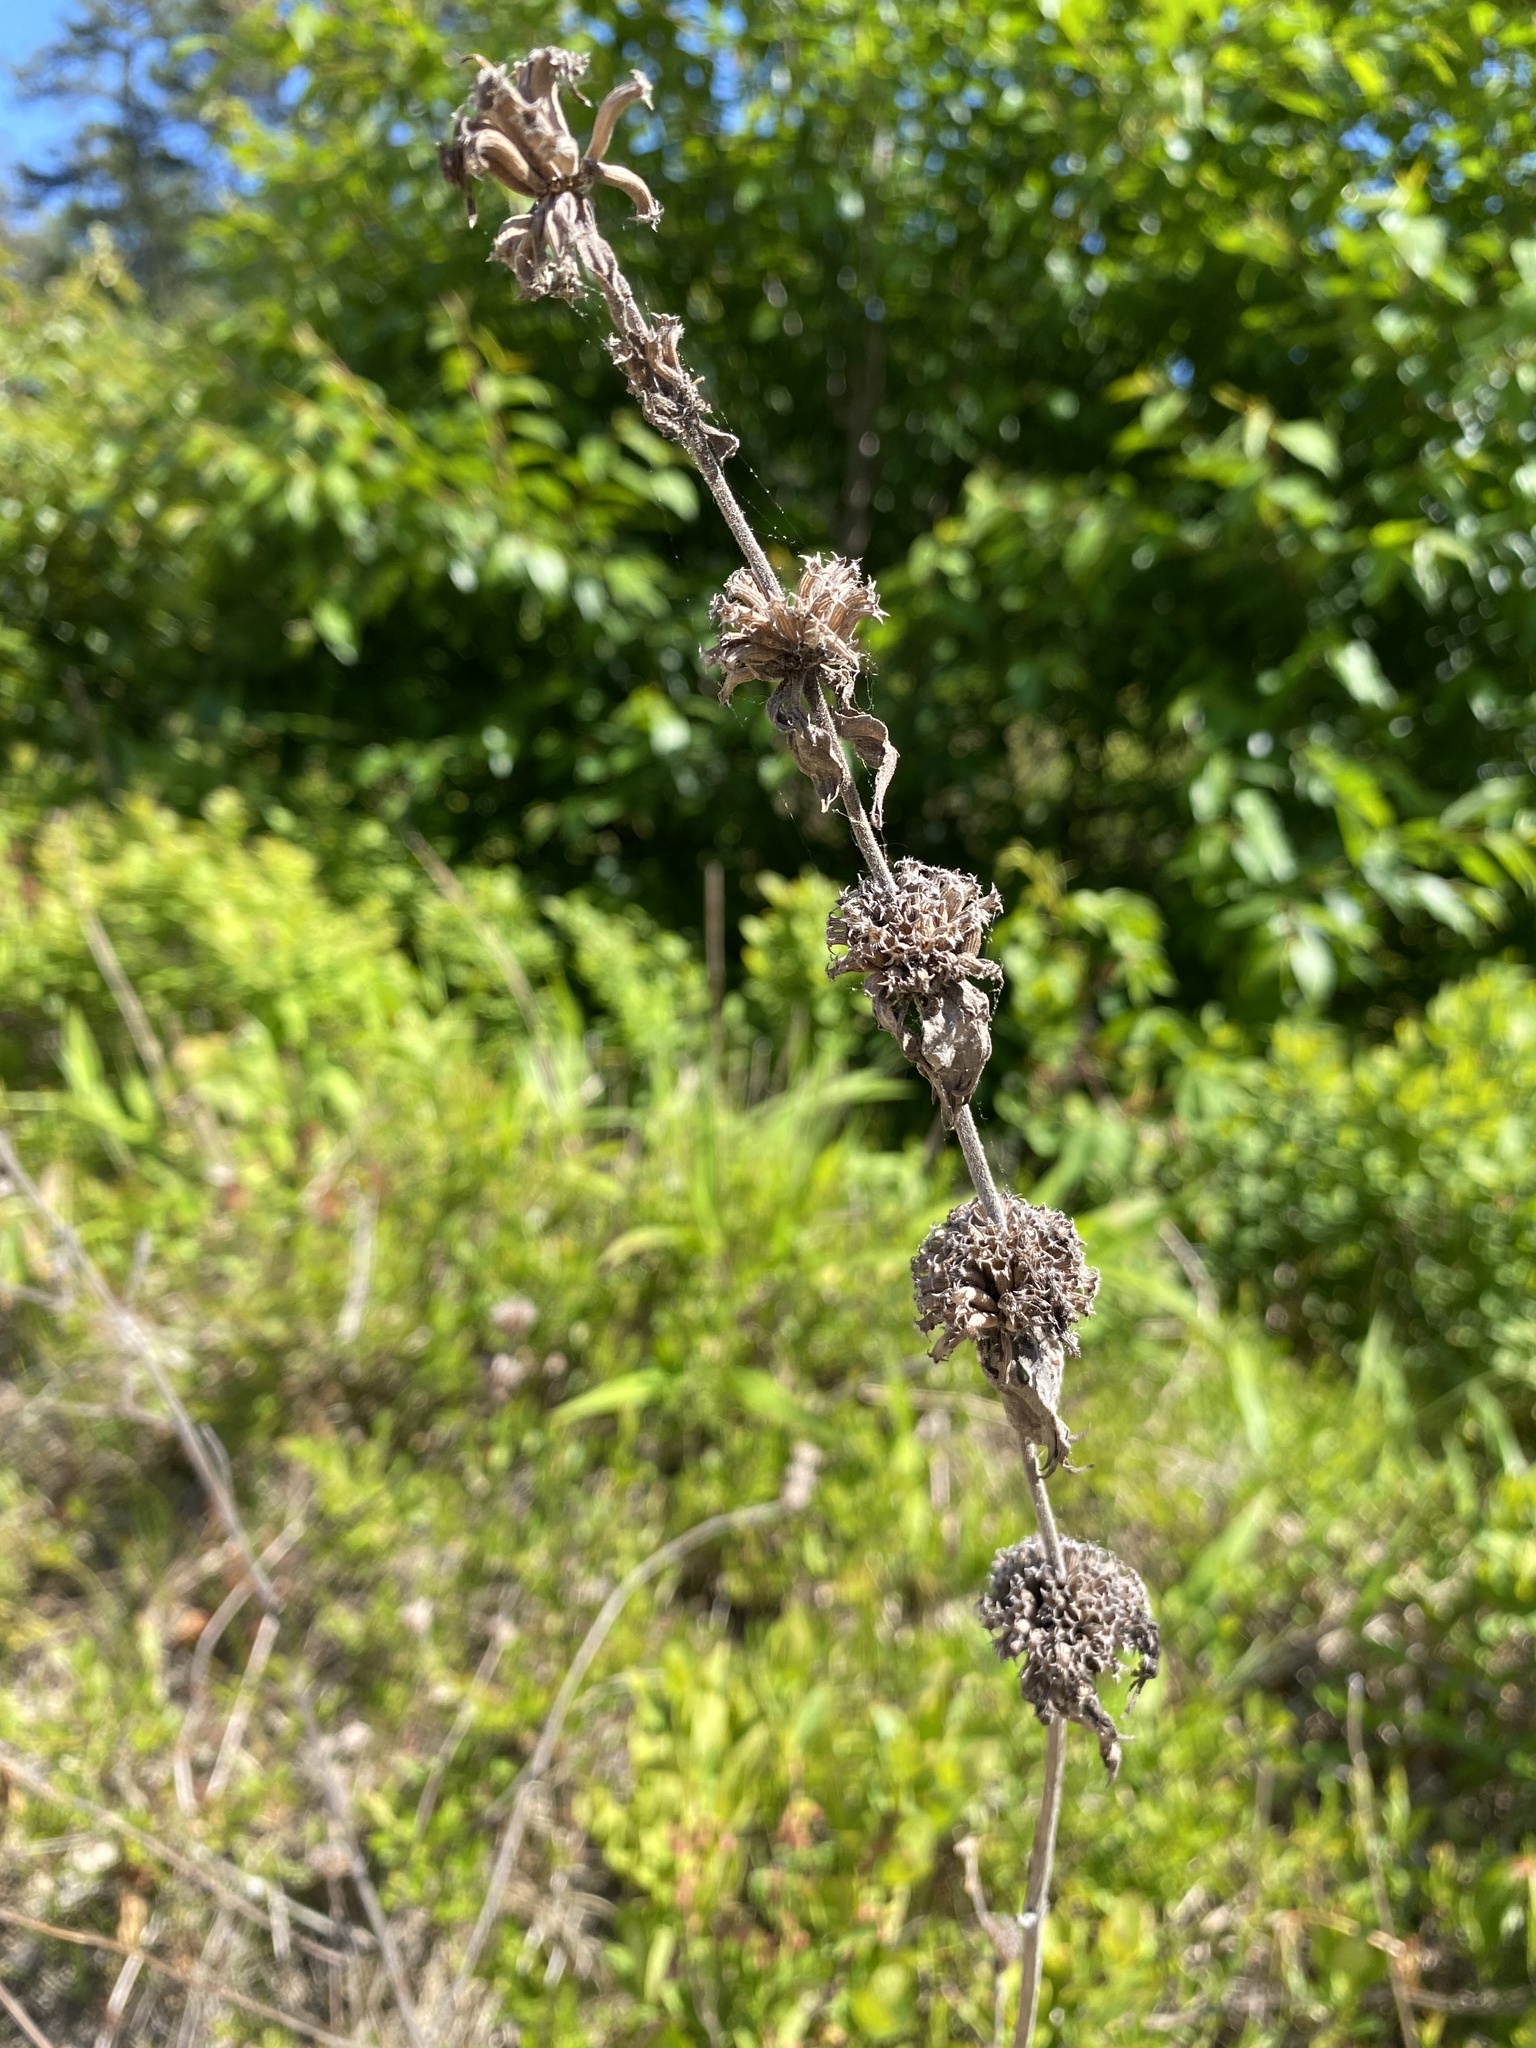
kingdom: Plantae
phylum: Tracheophyta
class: Magnoliopsida
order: Lamiales
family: Lamiaceae
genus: Monarda
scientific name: Monarda punctata
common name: Dotted monarda
